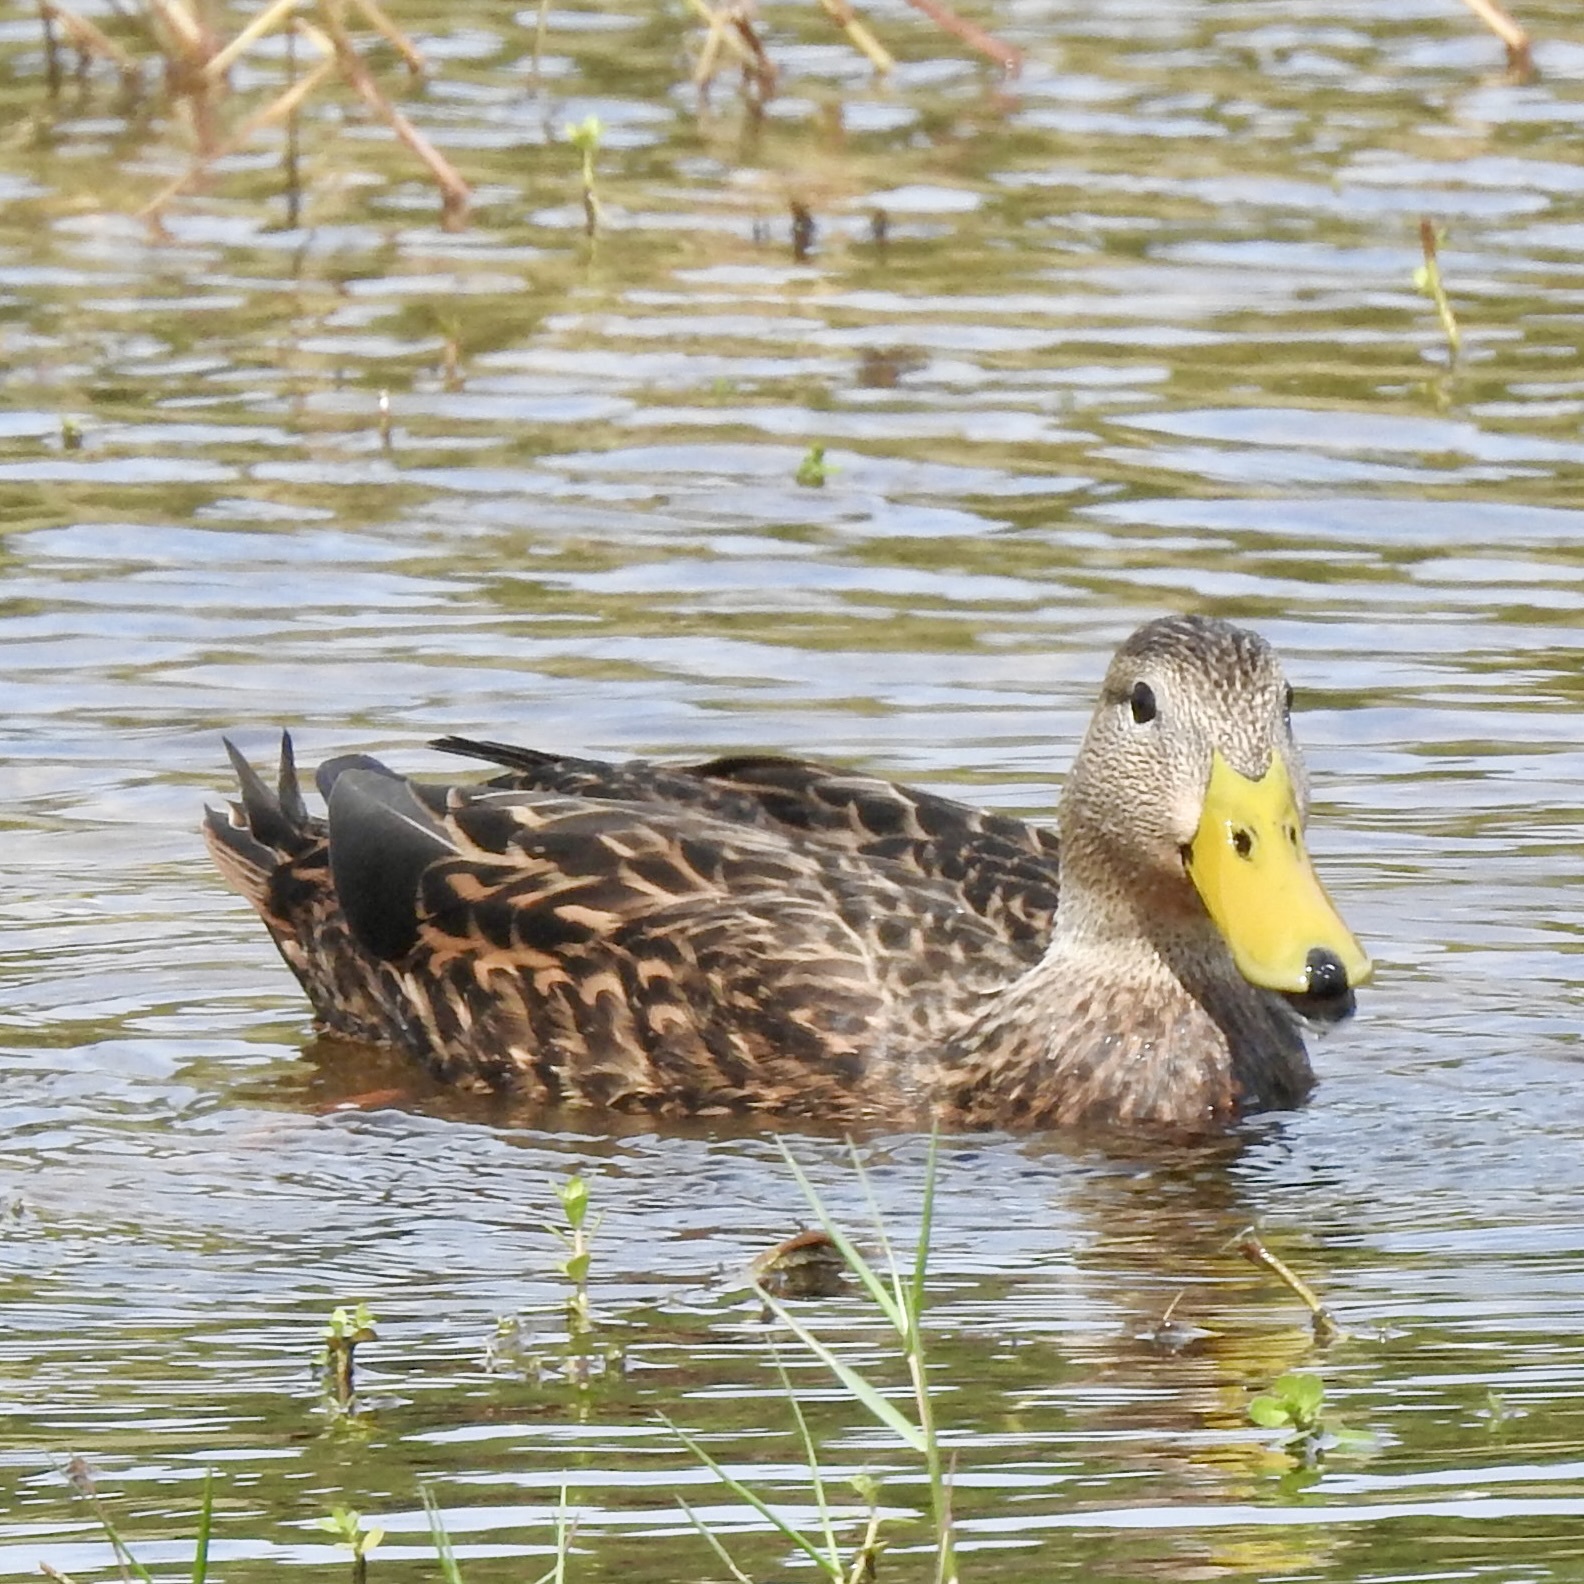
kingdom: Animalia
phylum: Chordata
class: Aves
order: Anseriformes
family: Anatidae
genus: Anas
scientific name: Anas fulvigula
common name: Mottled duck
